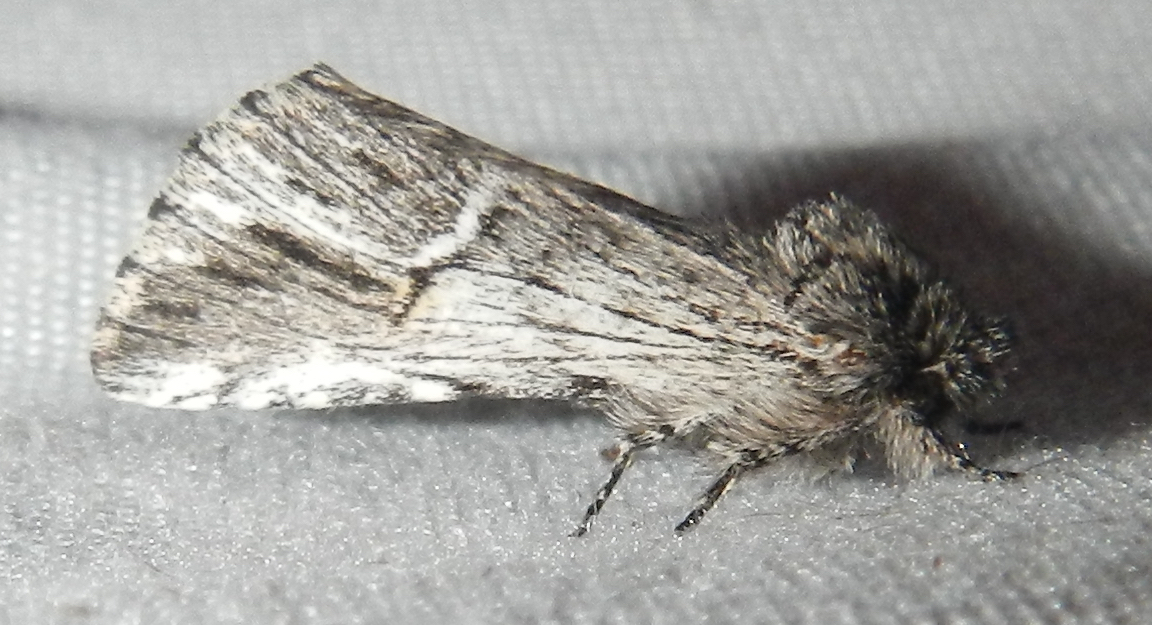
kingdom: Animalia
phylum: Arthropoda
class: Insecta
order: Lepidoptera
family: Notodontidae
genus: Ursia
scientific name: Ursia noctuiformis
